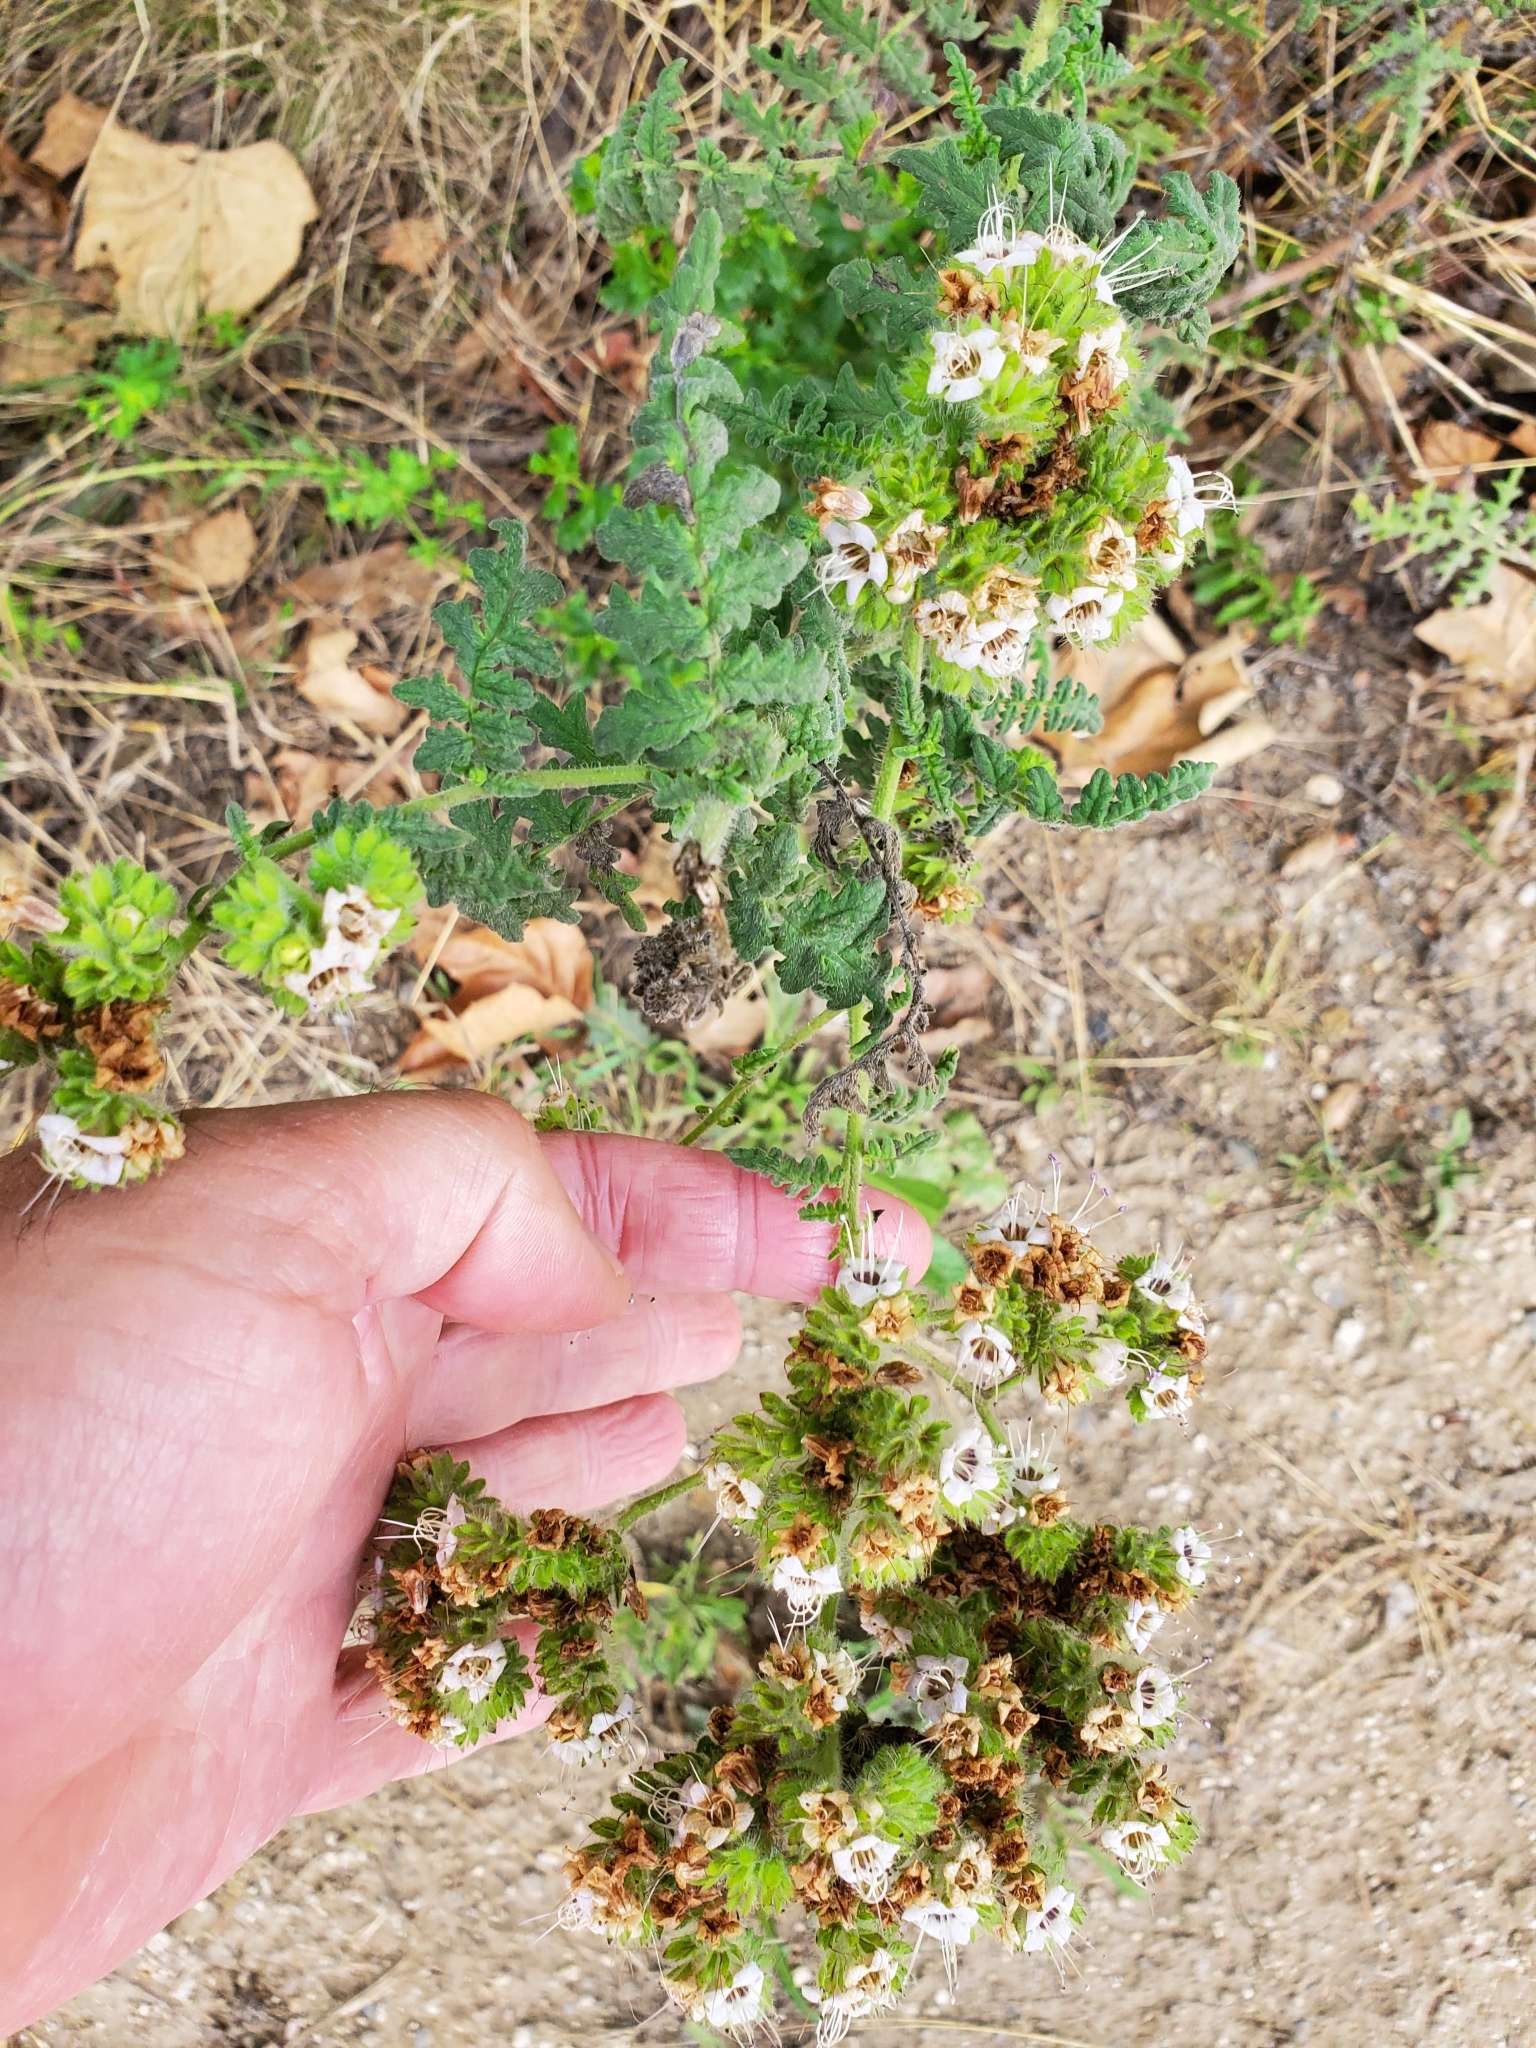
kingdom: Plantae
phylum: Tracheophyta
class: Magnoliopsida
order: Boraginales
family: Hydrophyllaceae
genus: Phacelia
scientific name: Phacelia ramosissima
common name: Branching phacelia
